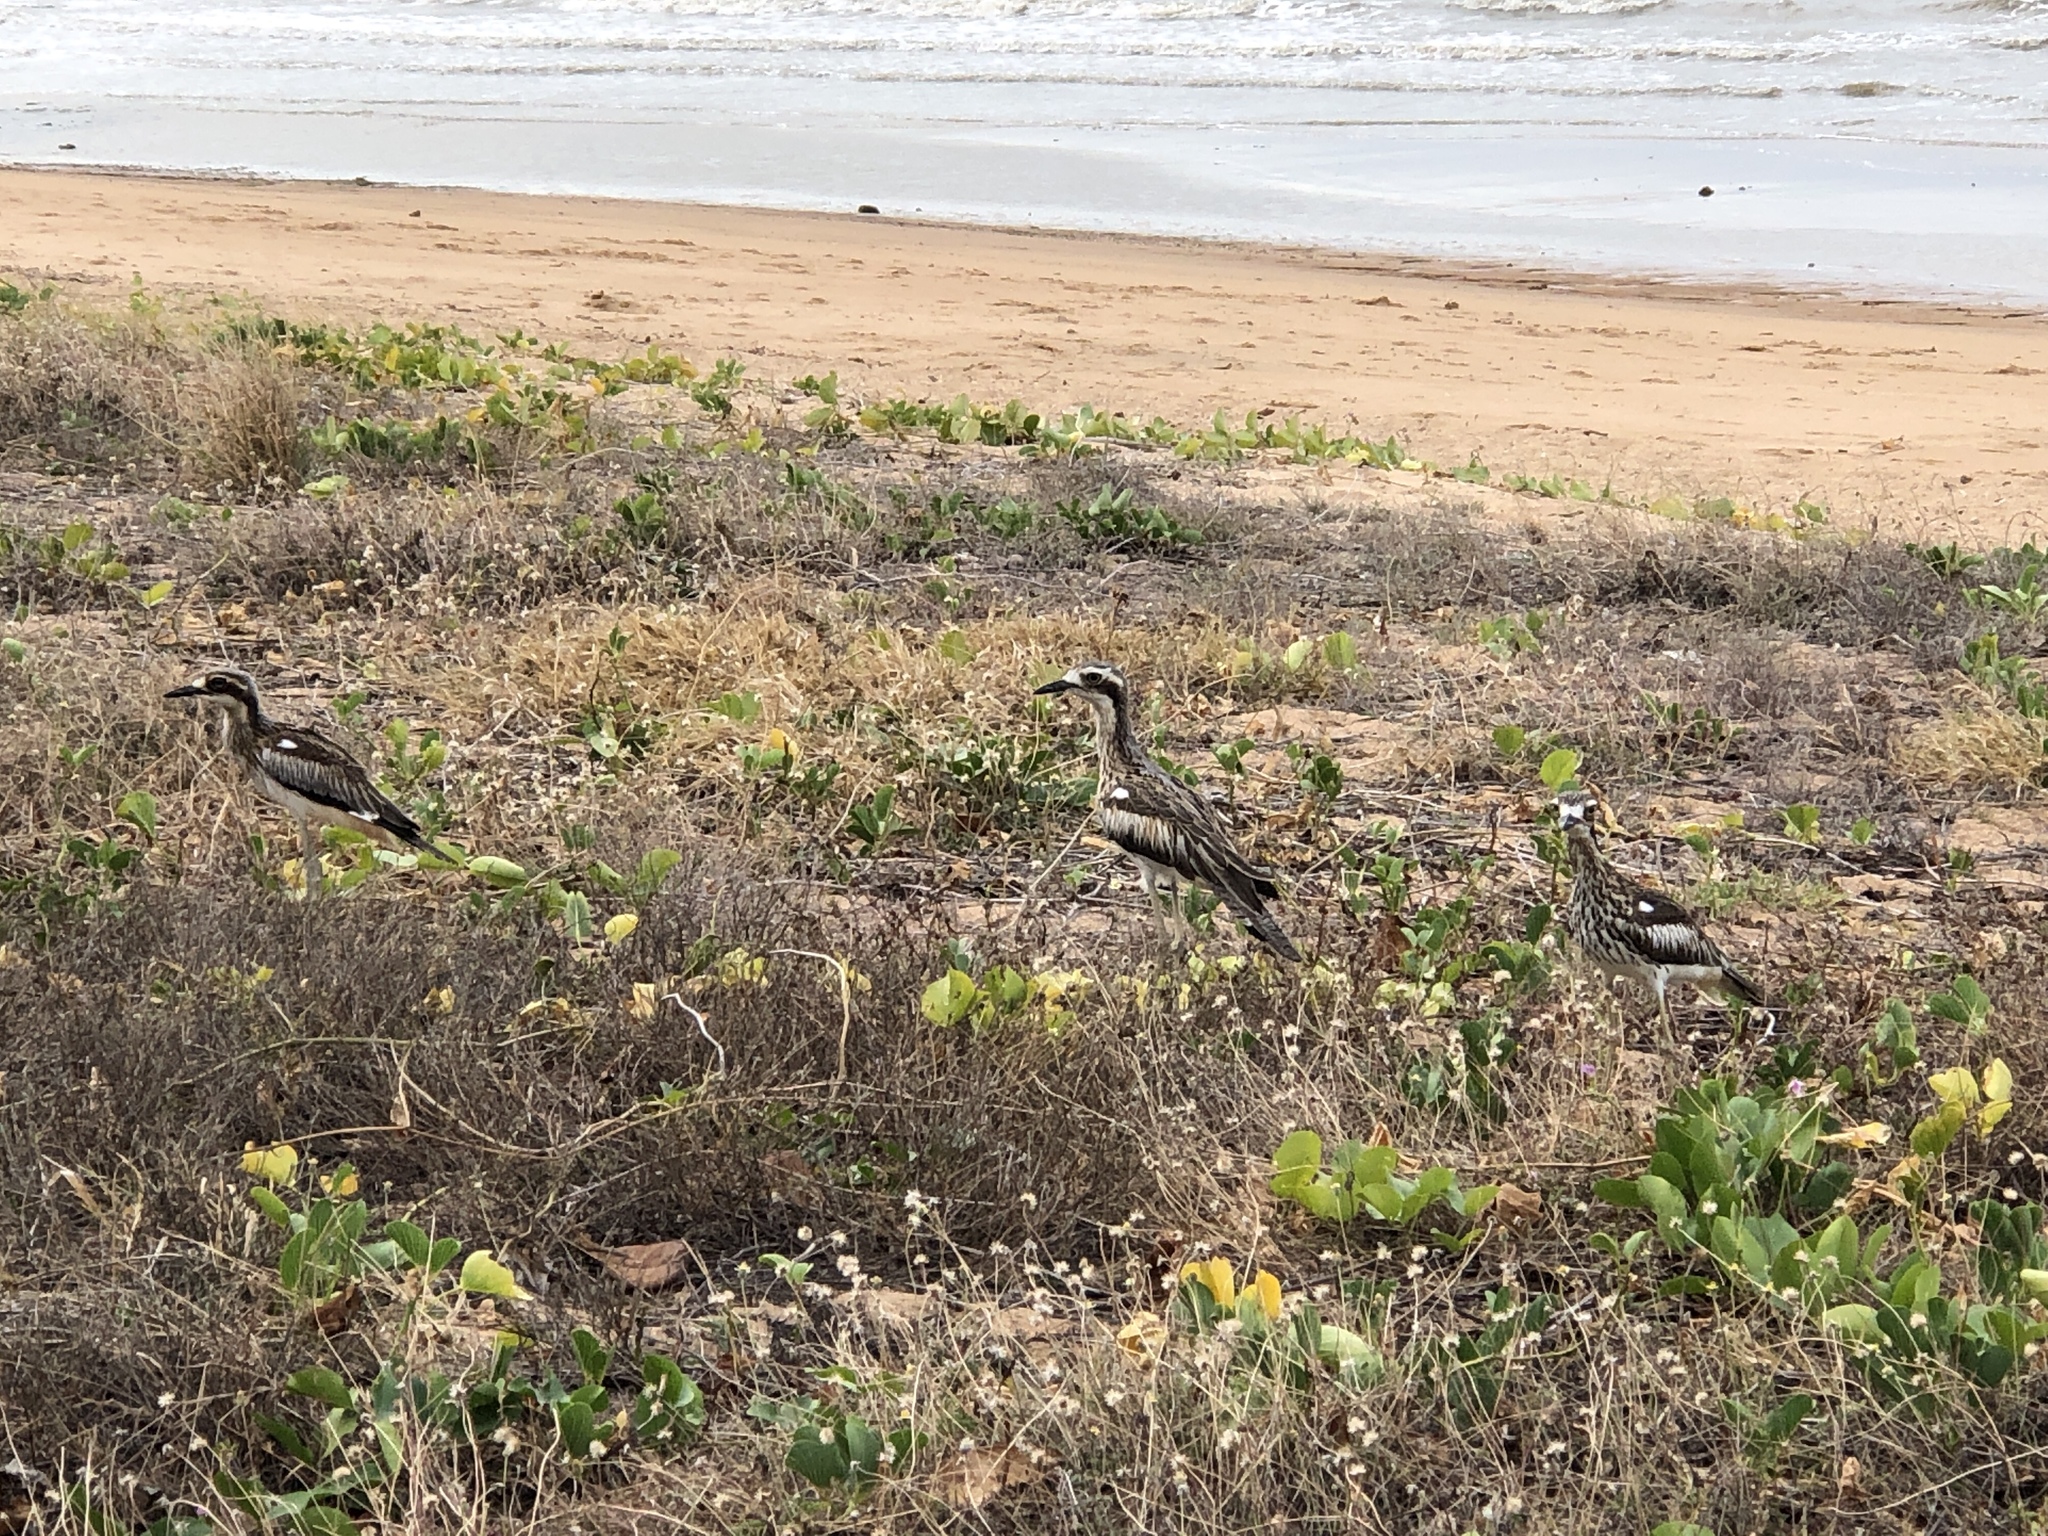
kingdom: Animalia
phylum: Chordata
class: Aves
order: Charadriiformes
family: Burhinidae
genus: Burhinus
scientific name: Burhinus grallarius
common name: Bush stone-curlew
